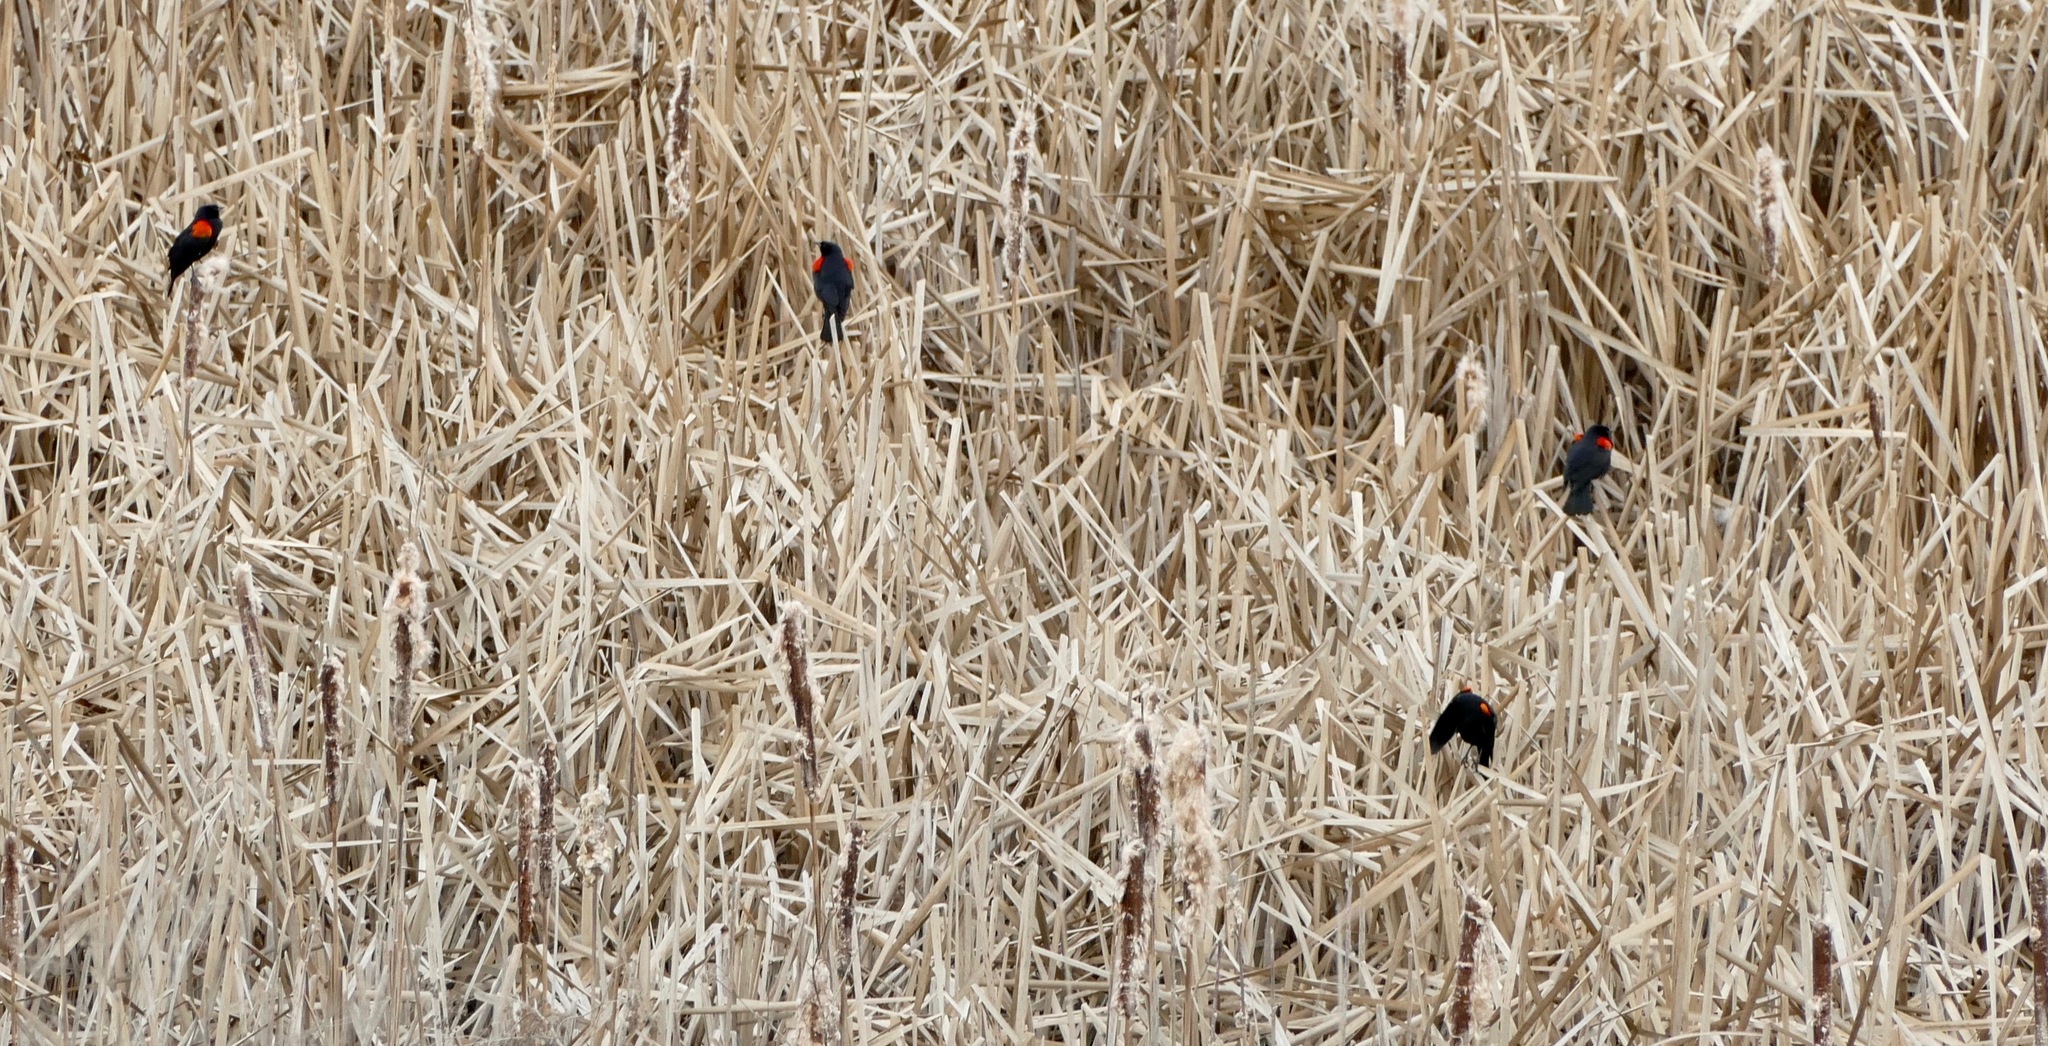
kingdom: Animalia
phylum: Chordata
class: Aves
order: Passeriformes
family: Icteridae
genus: Agelaius
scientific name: Agelaius phoeniceus
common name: Red-winged blackbird
